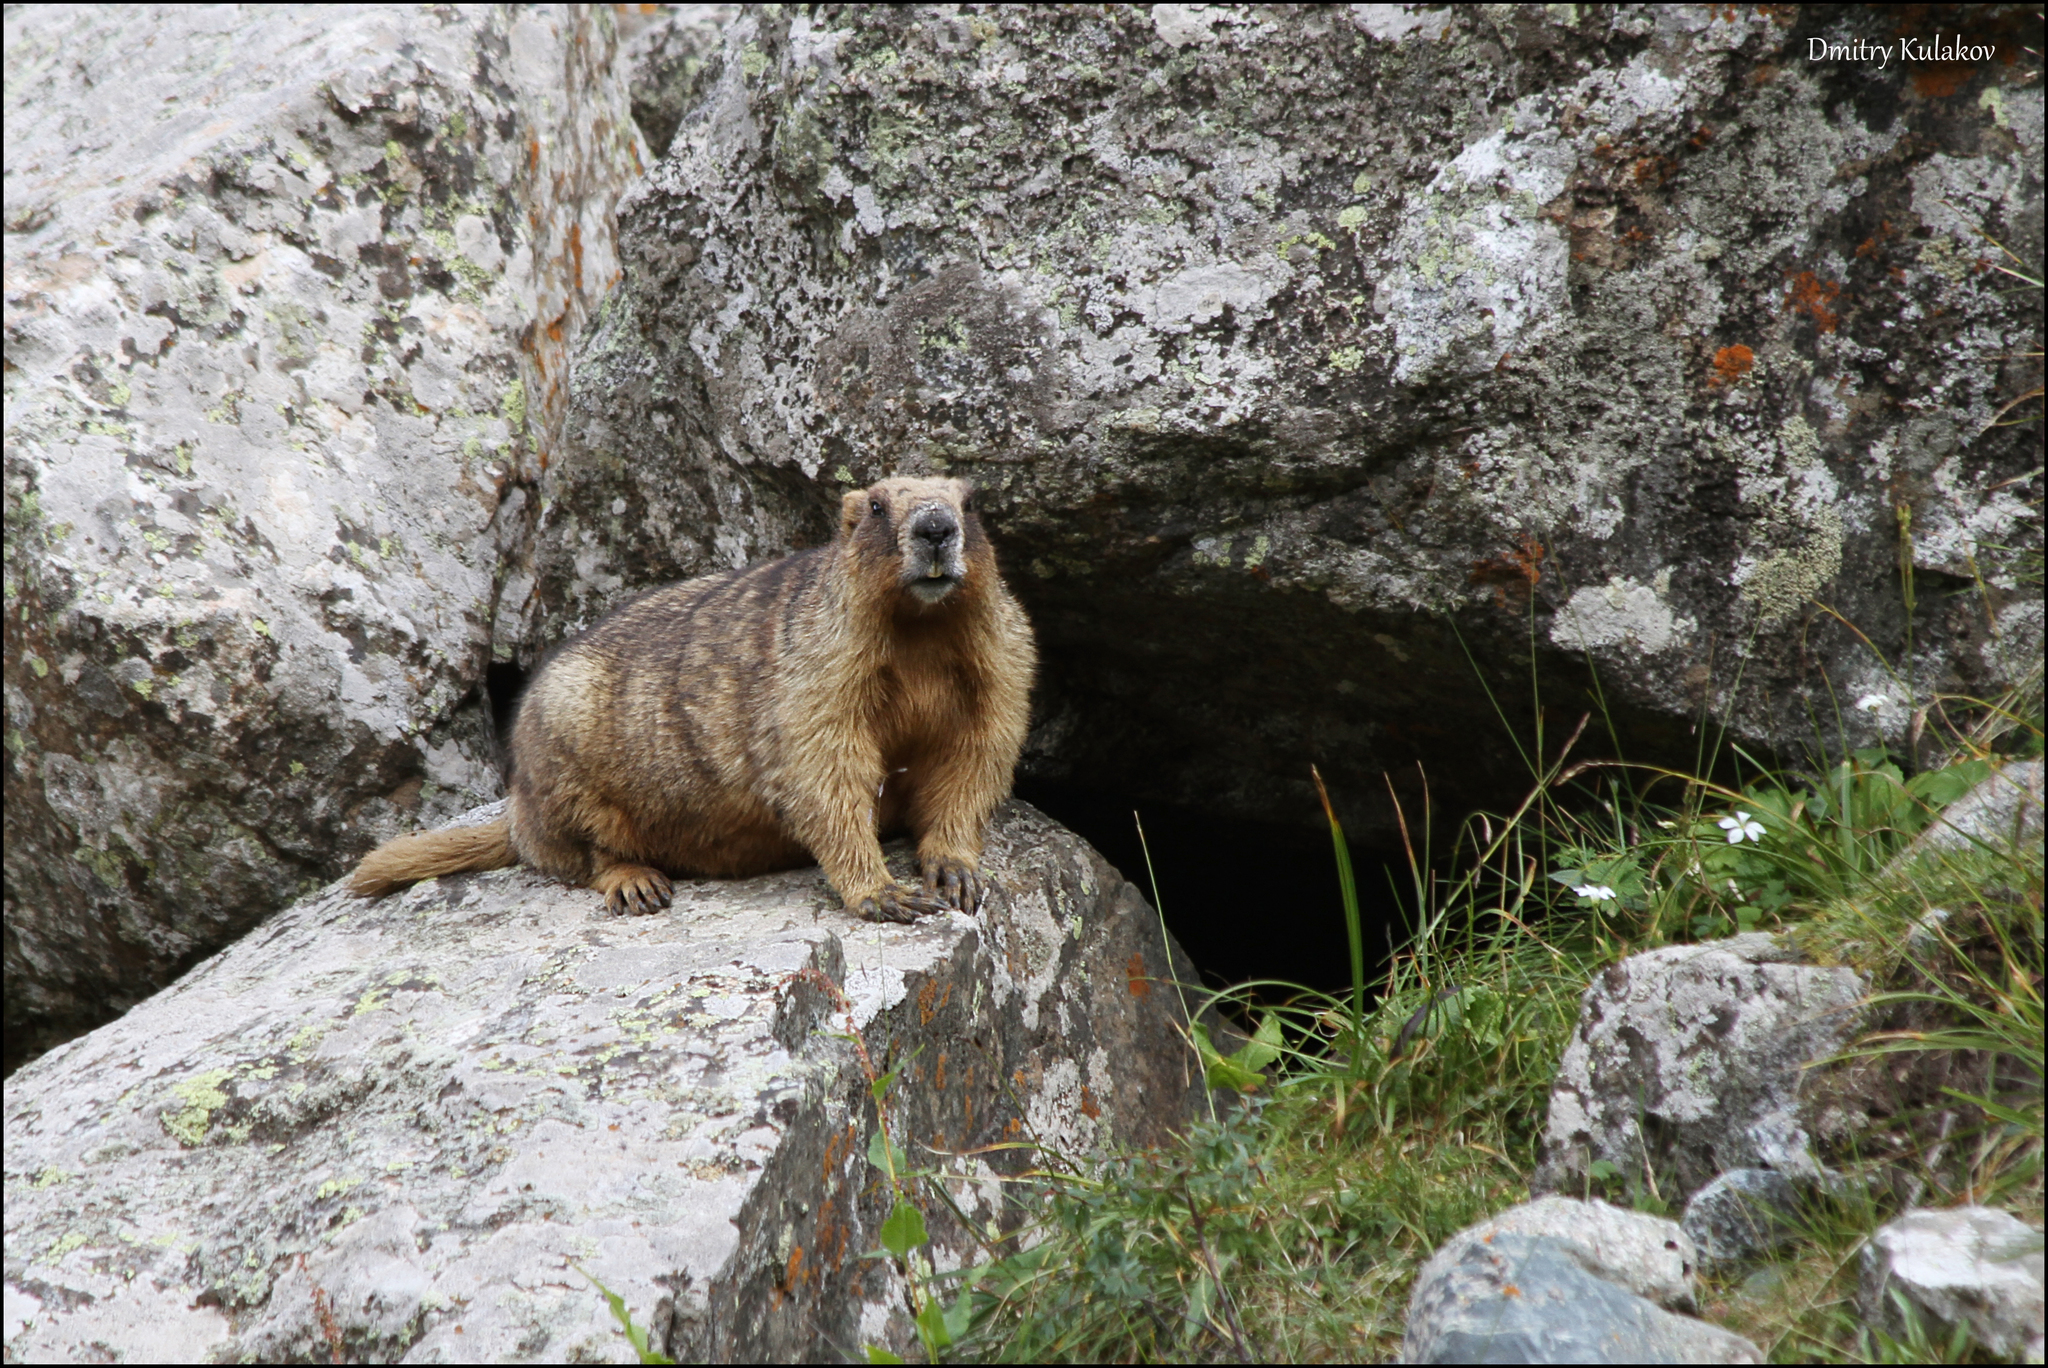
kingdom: Animalia
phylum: Chordata
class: Mammalia
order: Rodentia
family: Sciuridae
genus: Marmota
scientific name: Marmota baibacina
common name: Gray marmot
